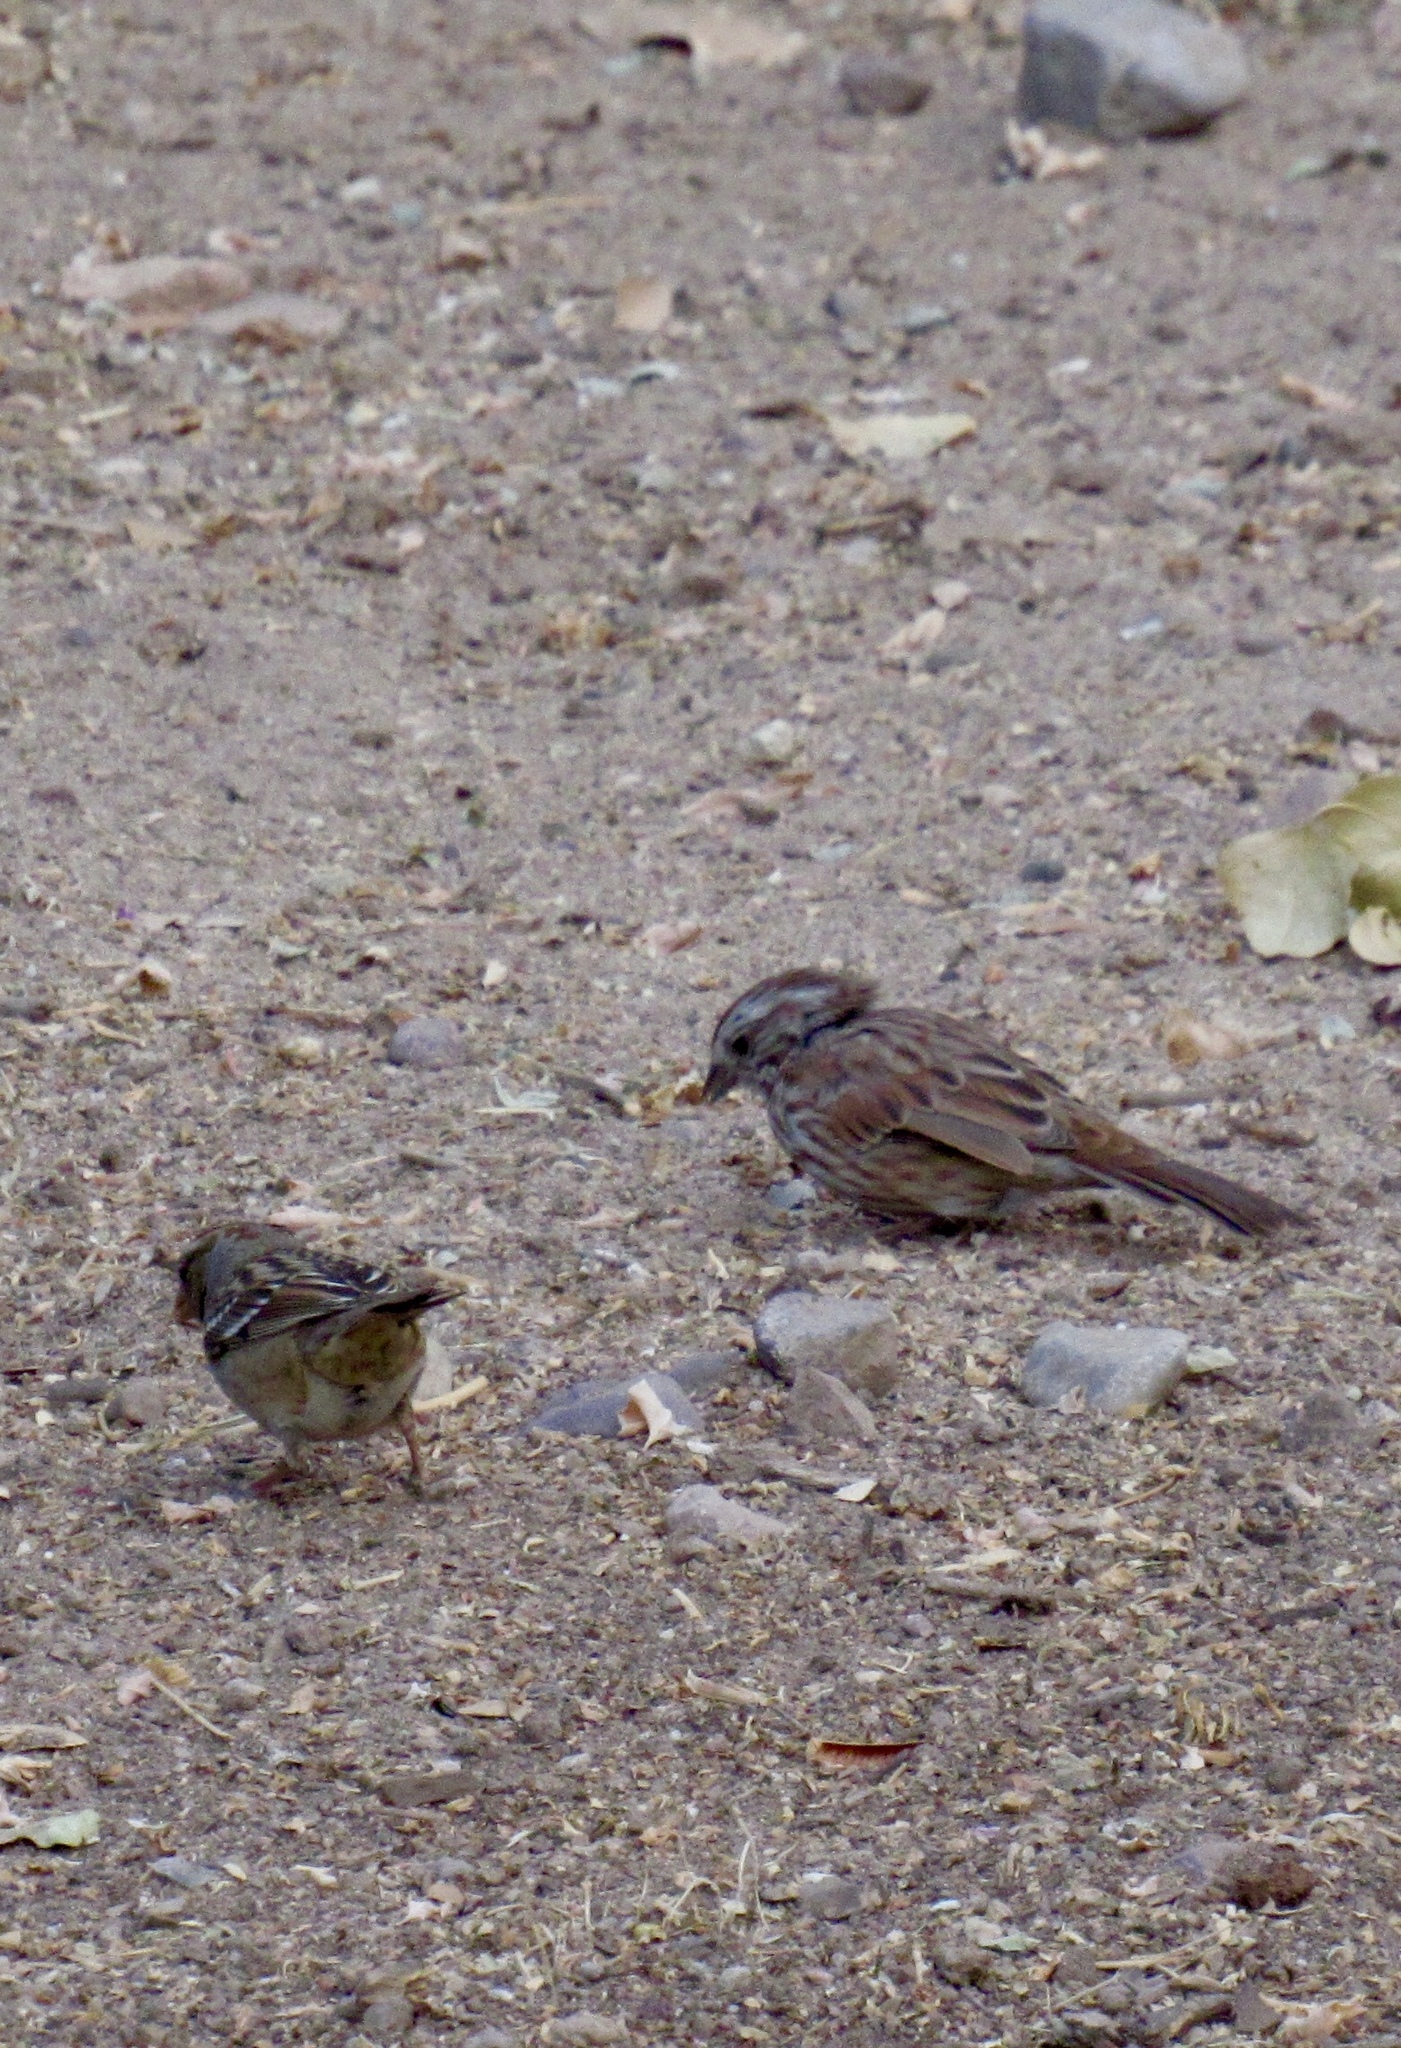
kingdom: Animalia
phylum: Chordata
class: Aves
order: Passeriformes
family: Passerellidae
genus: Zonotrichia
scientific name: Zonotrichia leucophrys
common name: White-crowned sparrow
